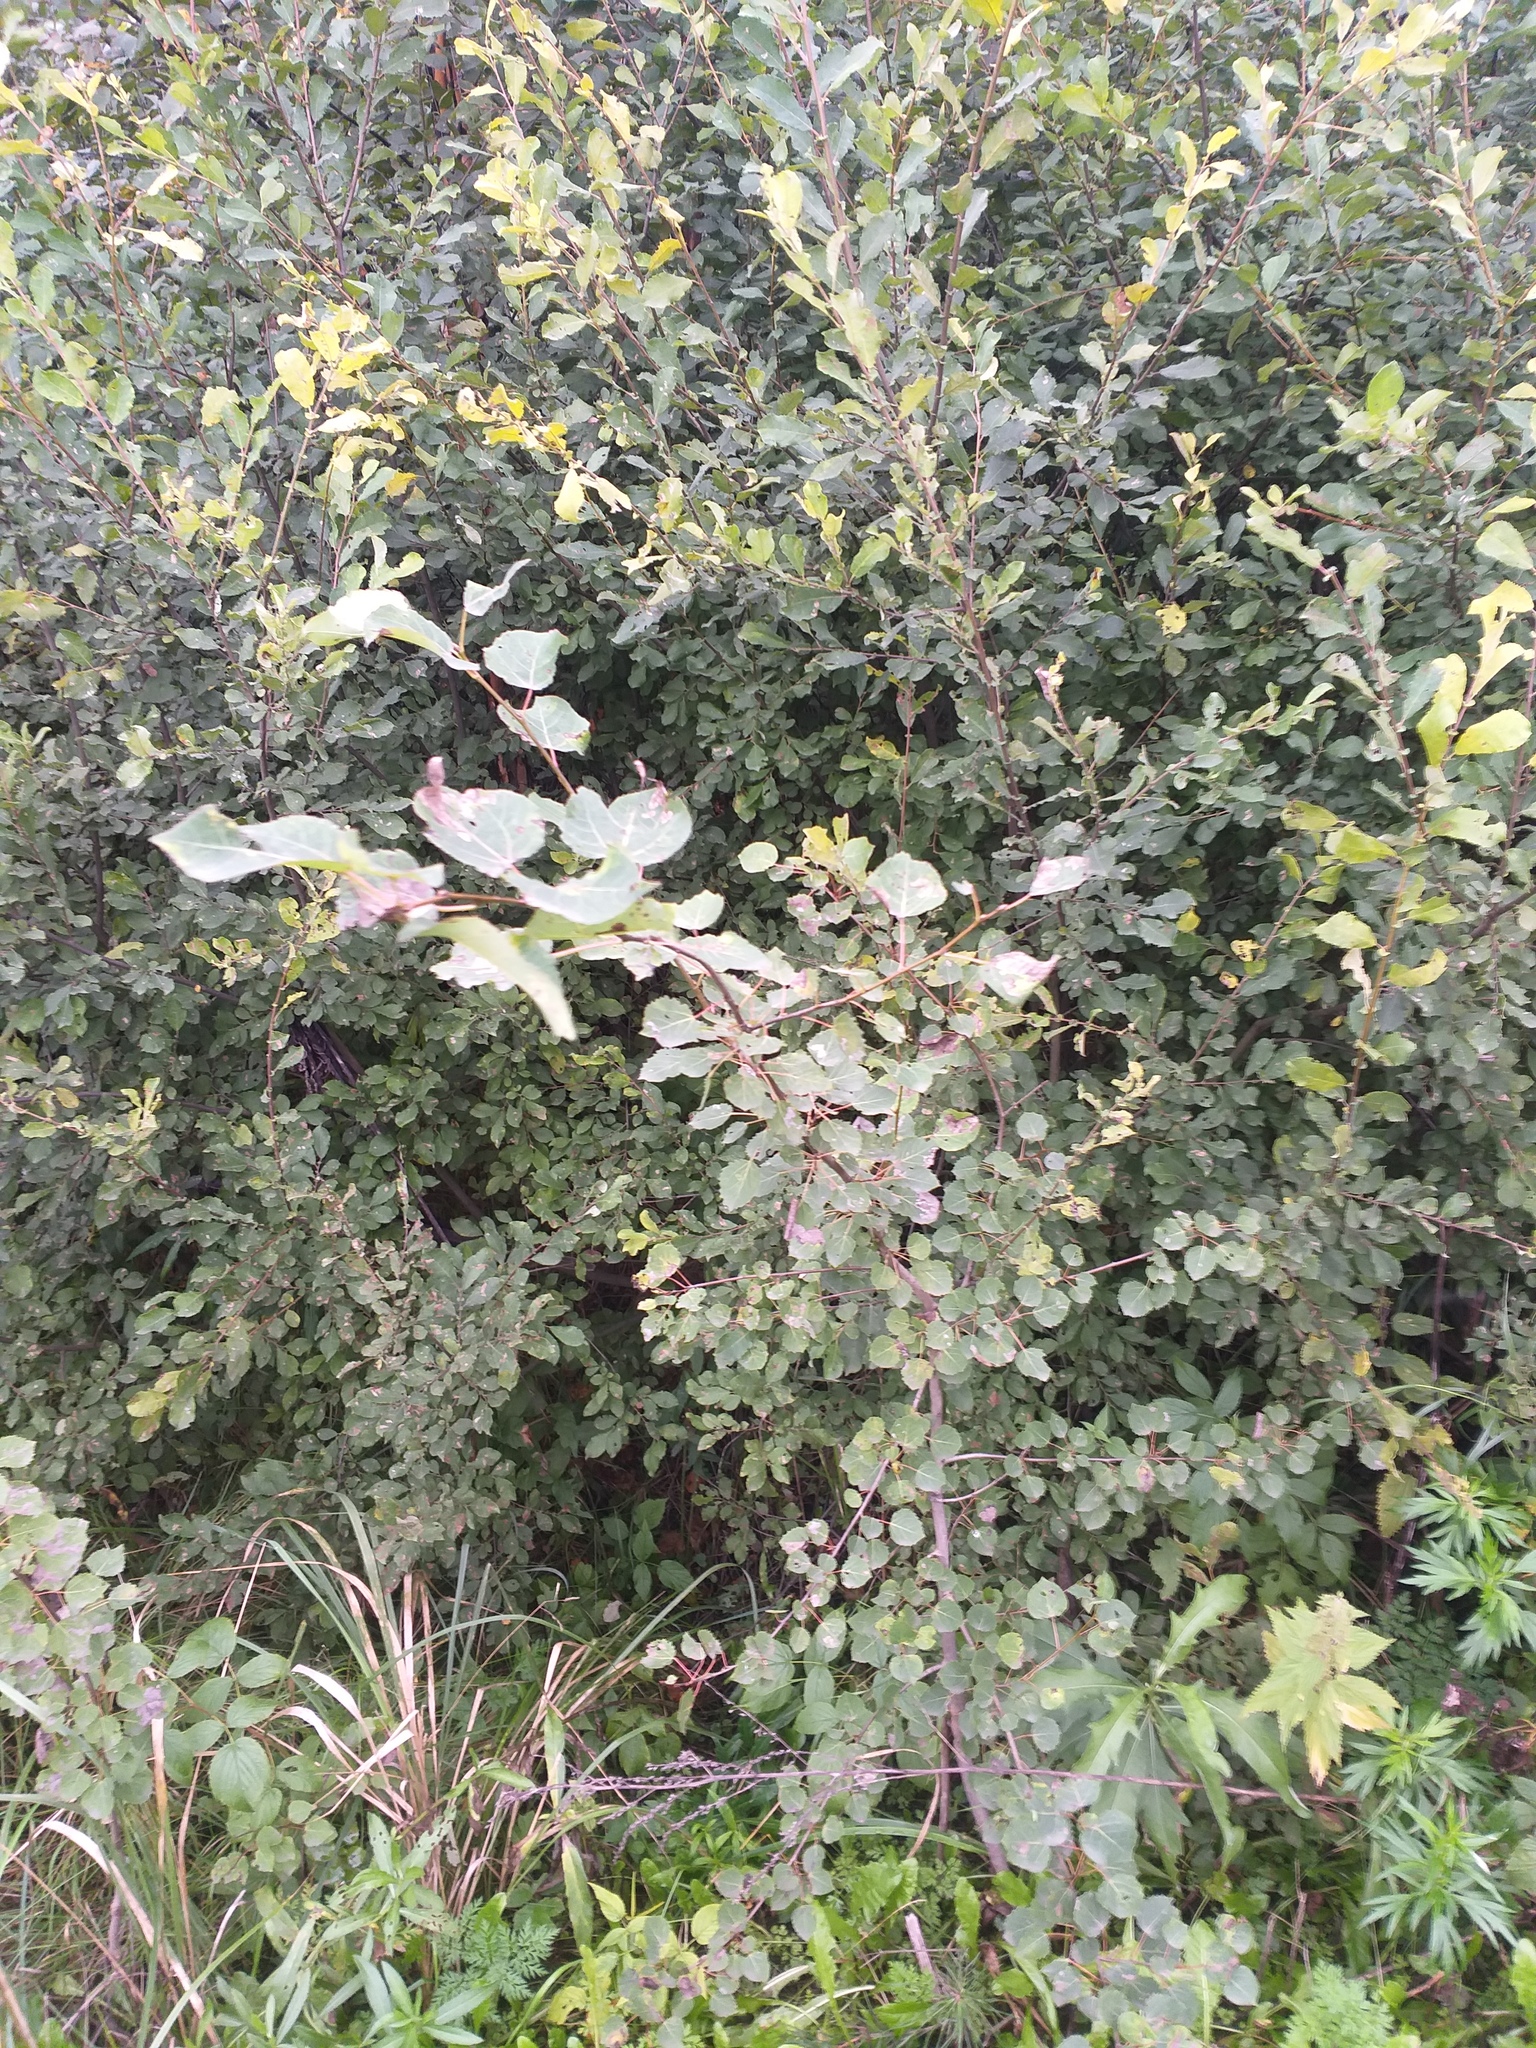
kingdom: Plantae
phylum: Tracheophyta
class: Magnoliopsida
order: Malpighiales
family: Salicaceae
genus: Populus
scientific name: Populus tremula
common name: European aspen
